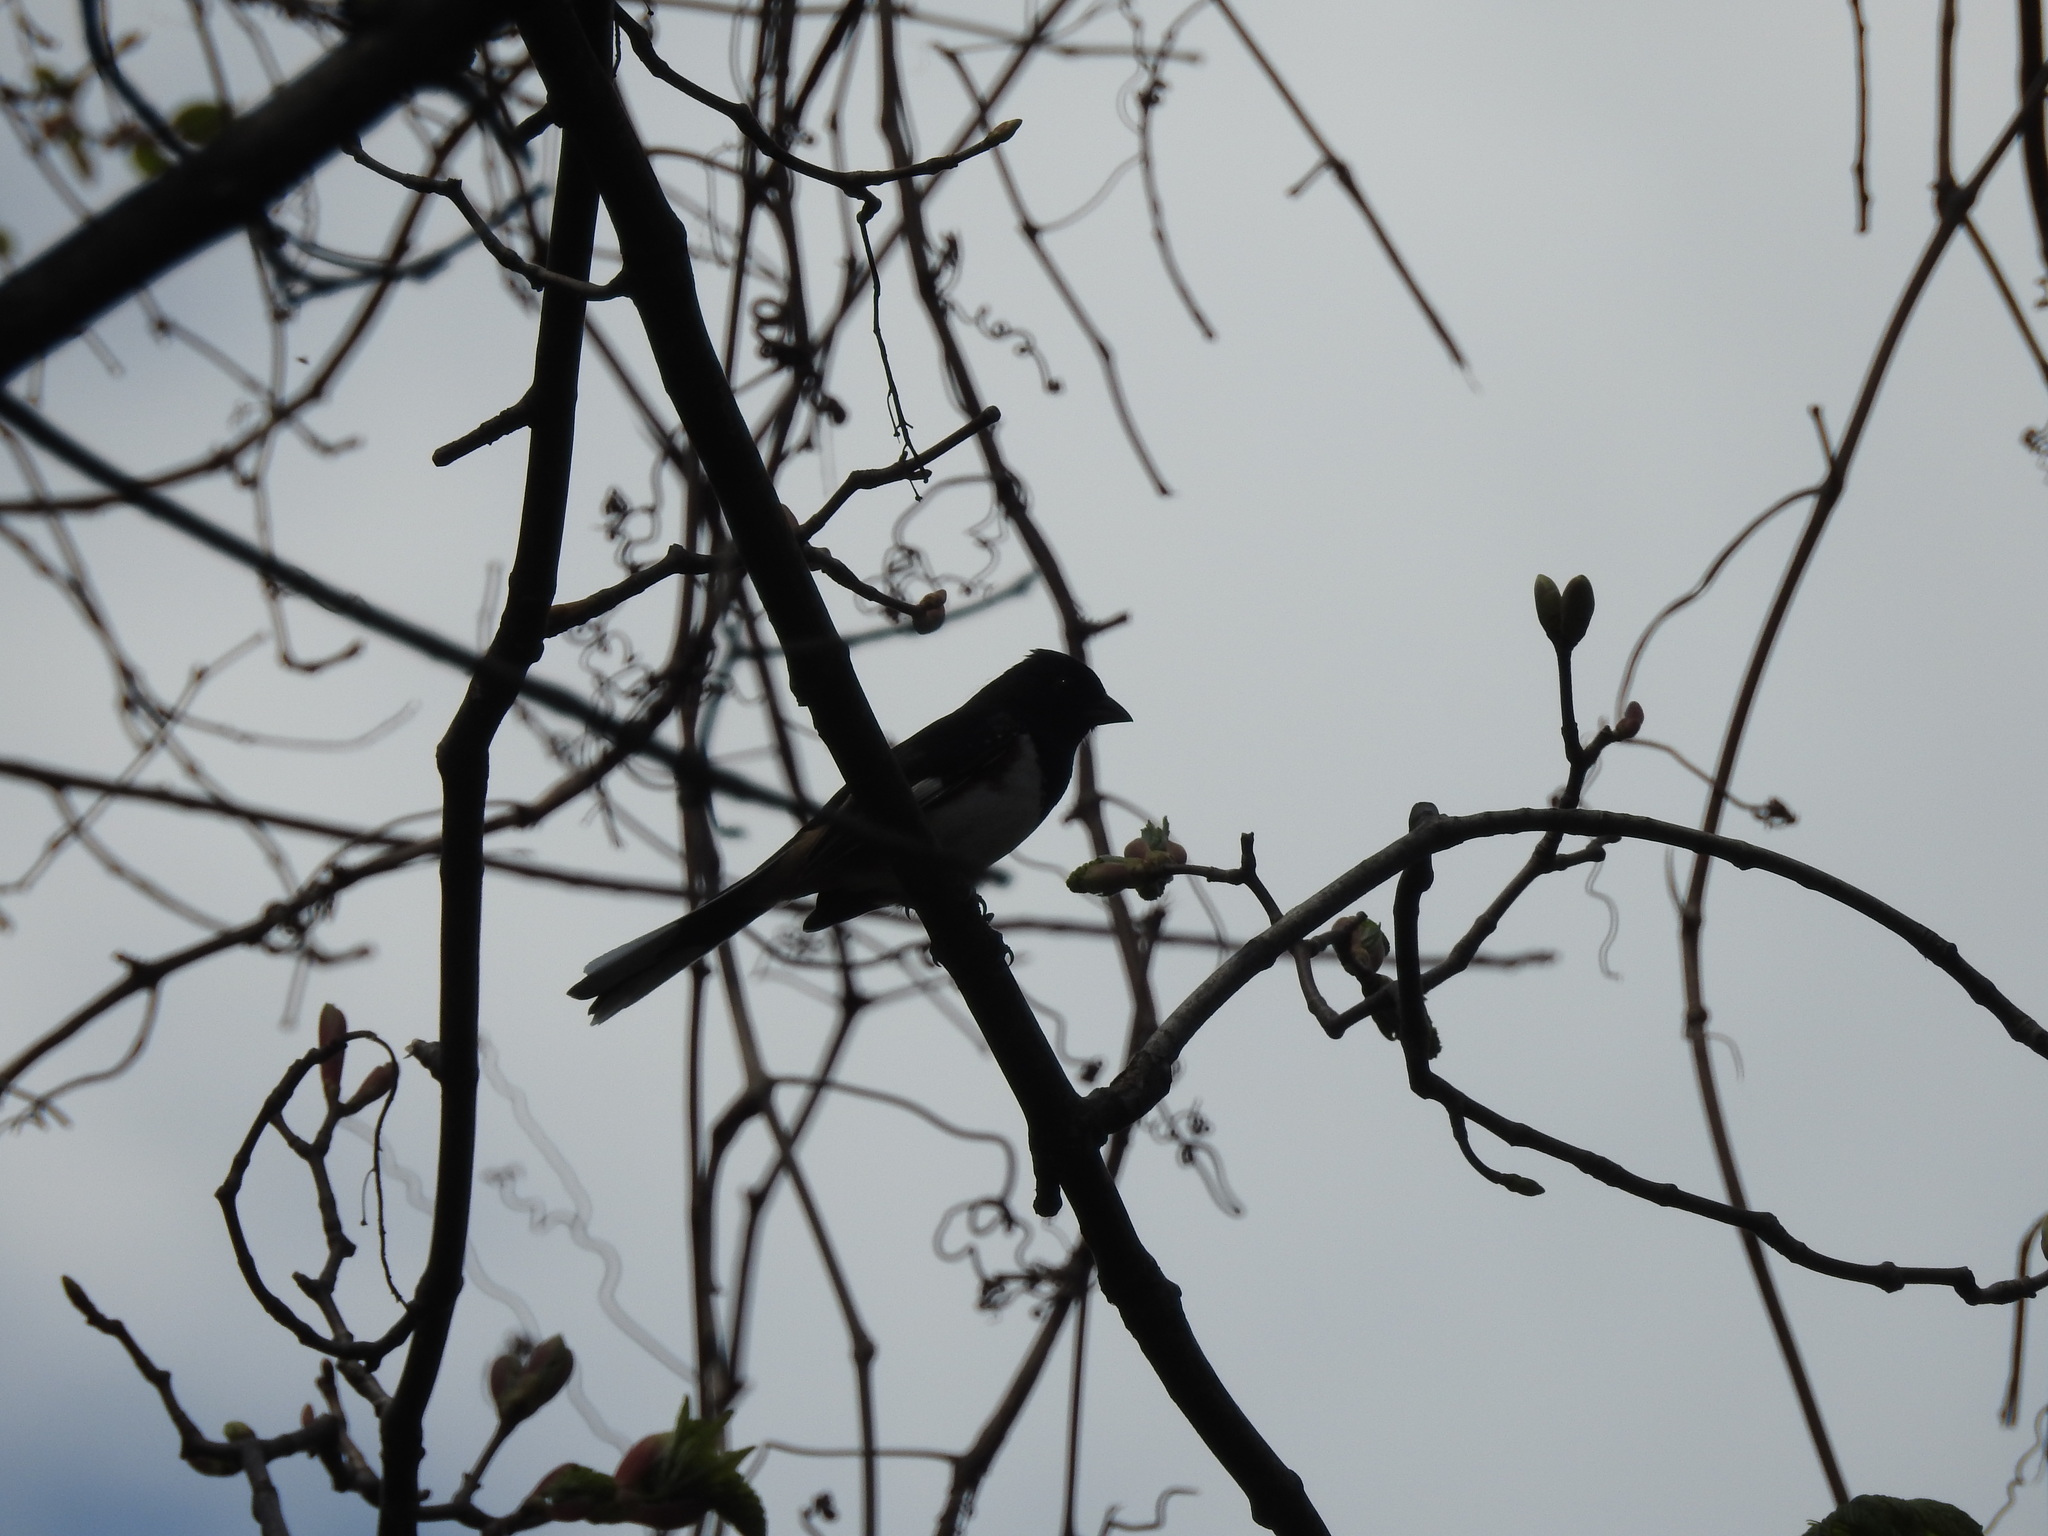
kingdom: Animalia
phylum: Chordata
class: Aves
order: Passeriformes
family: Passerellidae
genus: Pipilo
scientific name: Pipilo erythrophthalmus
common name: Eastern towhee
